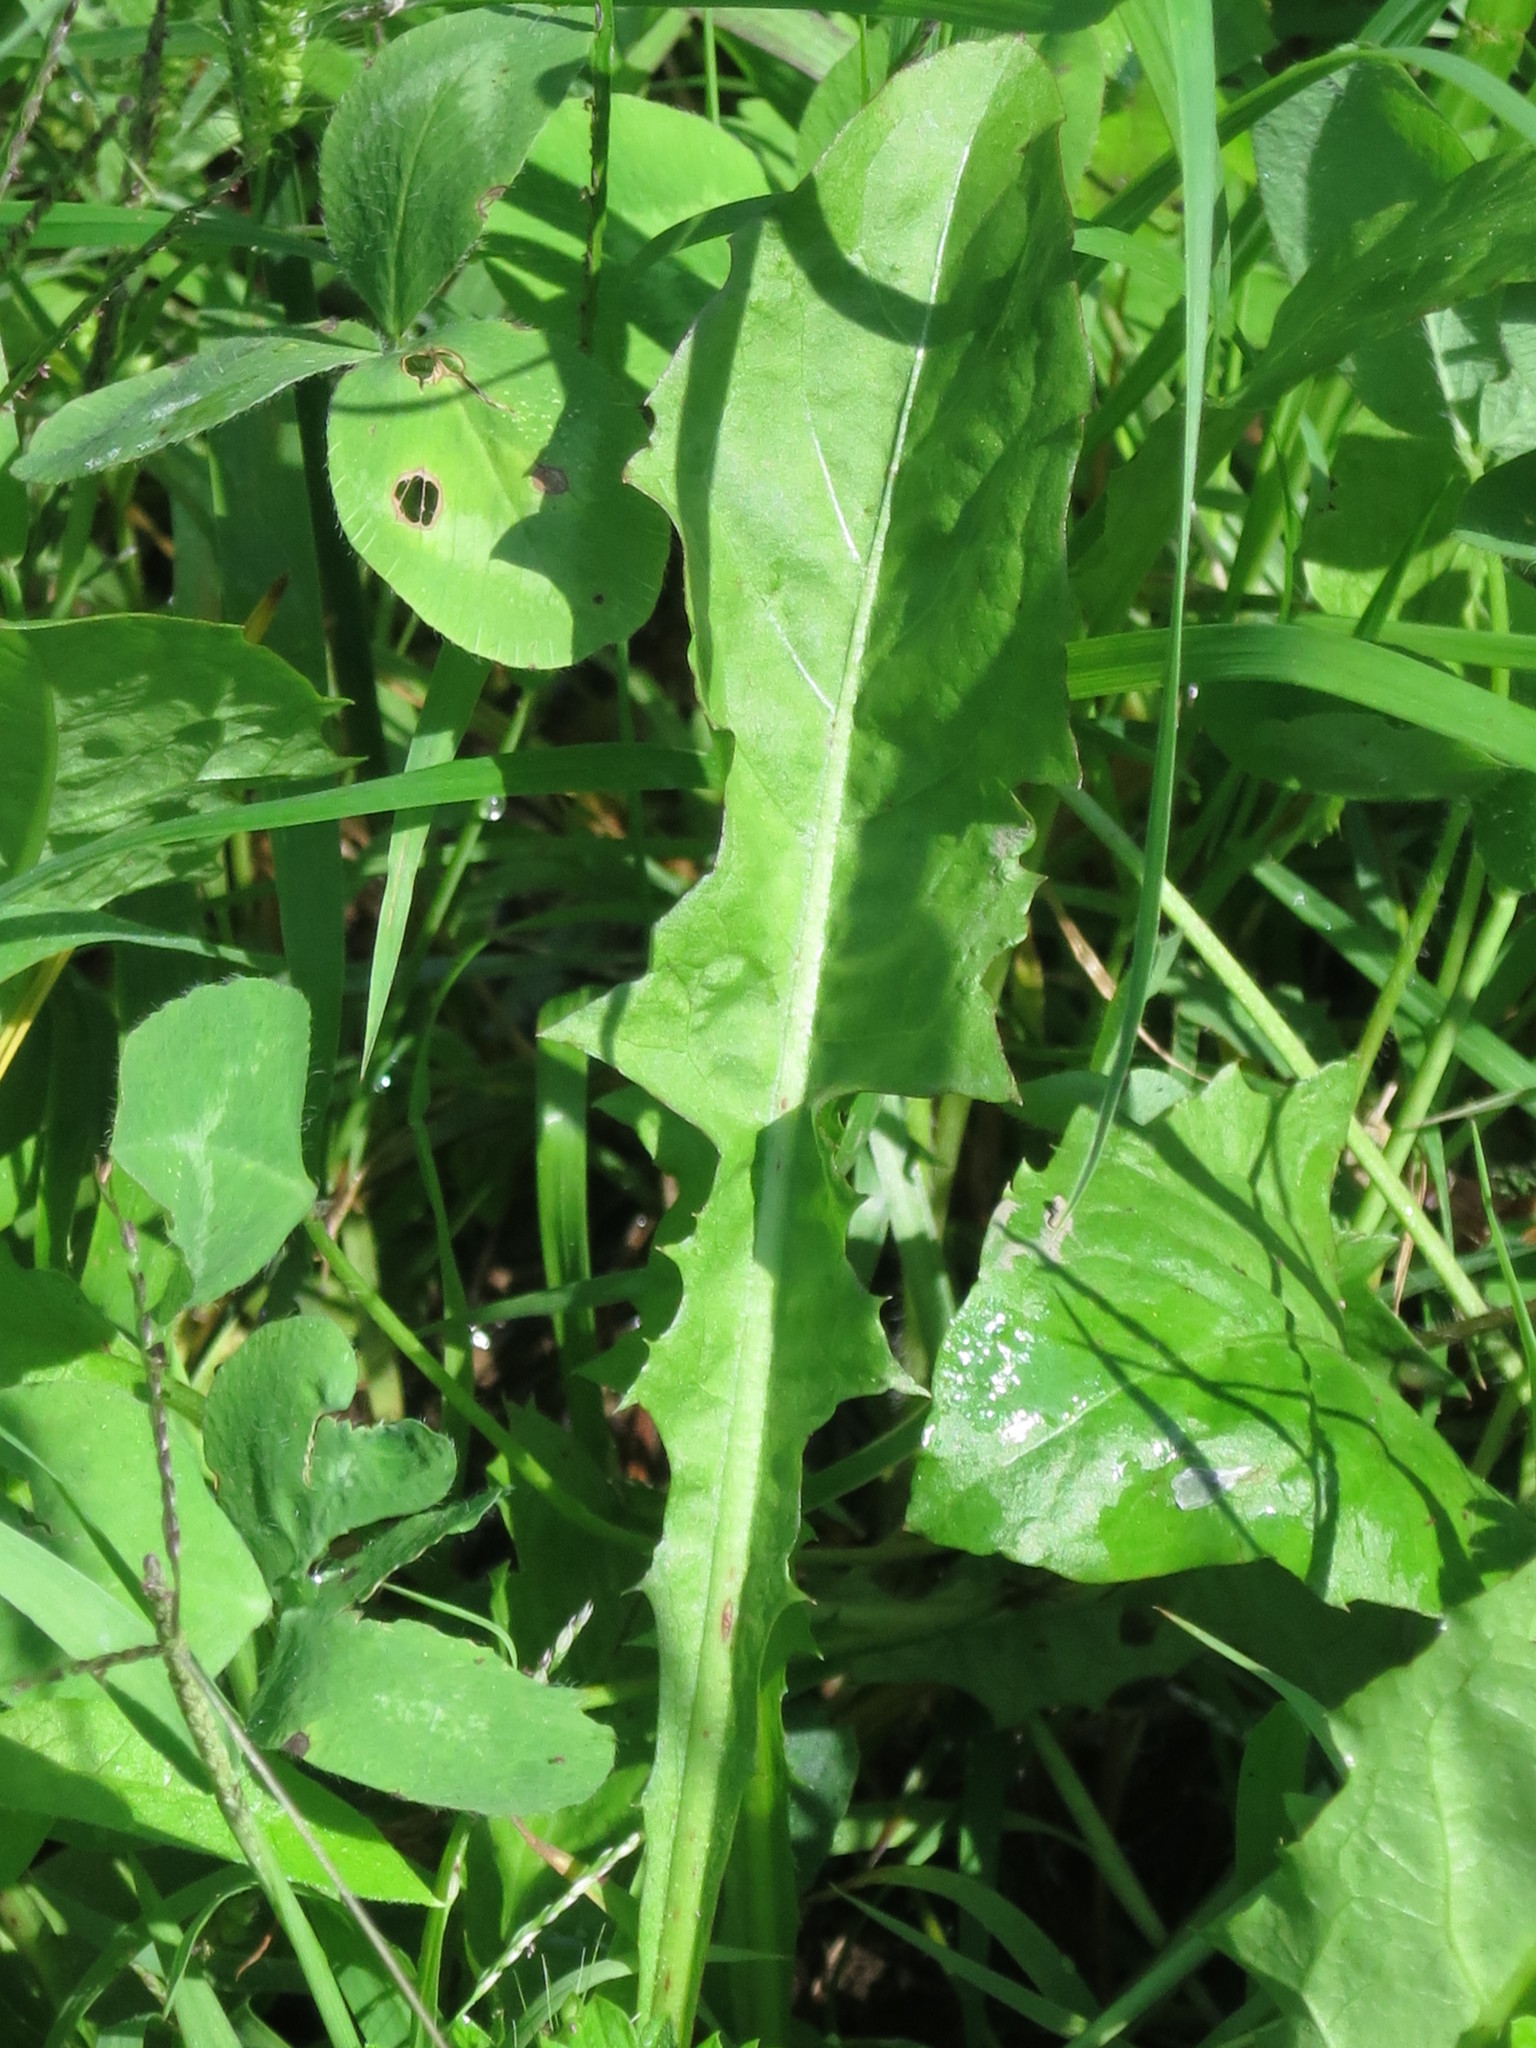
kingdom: Plantae
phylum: Tracheophyta
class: Magnoliopsida
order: Asterales
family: Asteraceae
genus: Taraxacum
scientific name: Taraxacum officinale
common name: Common dandelion
